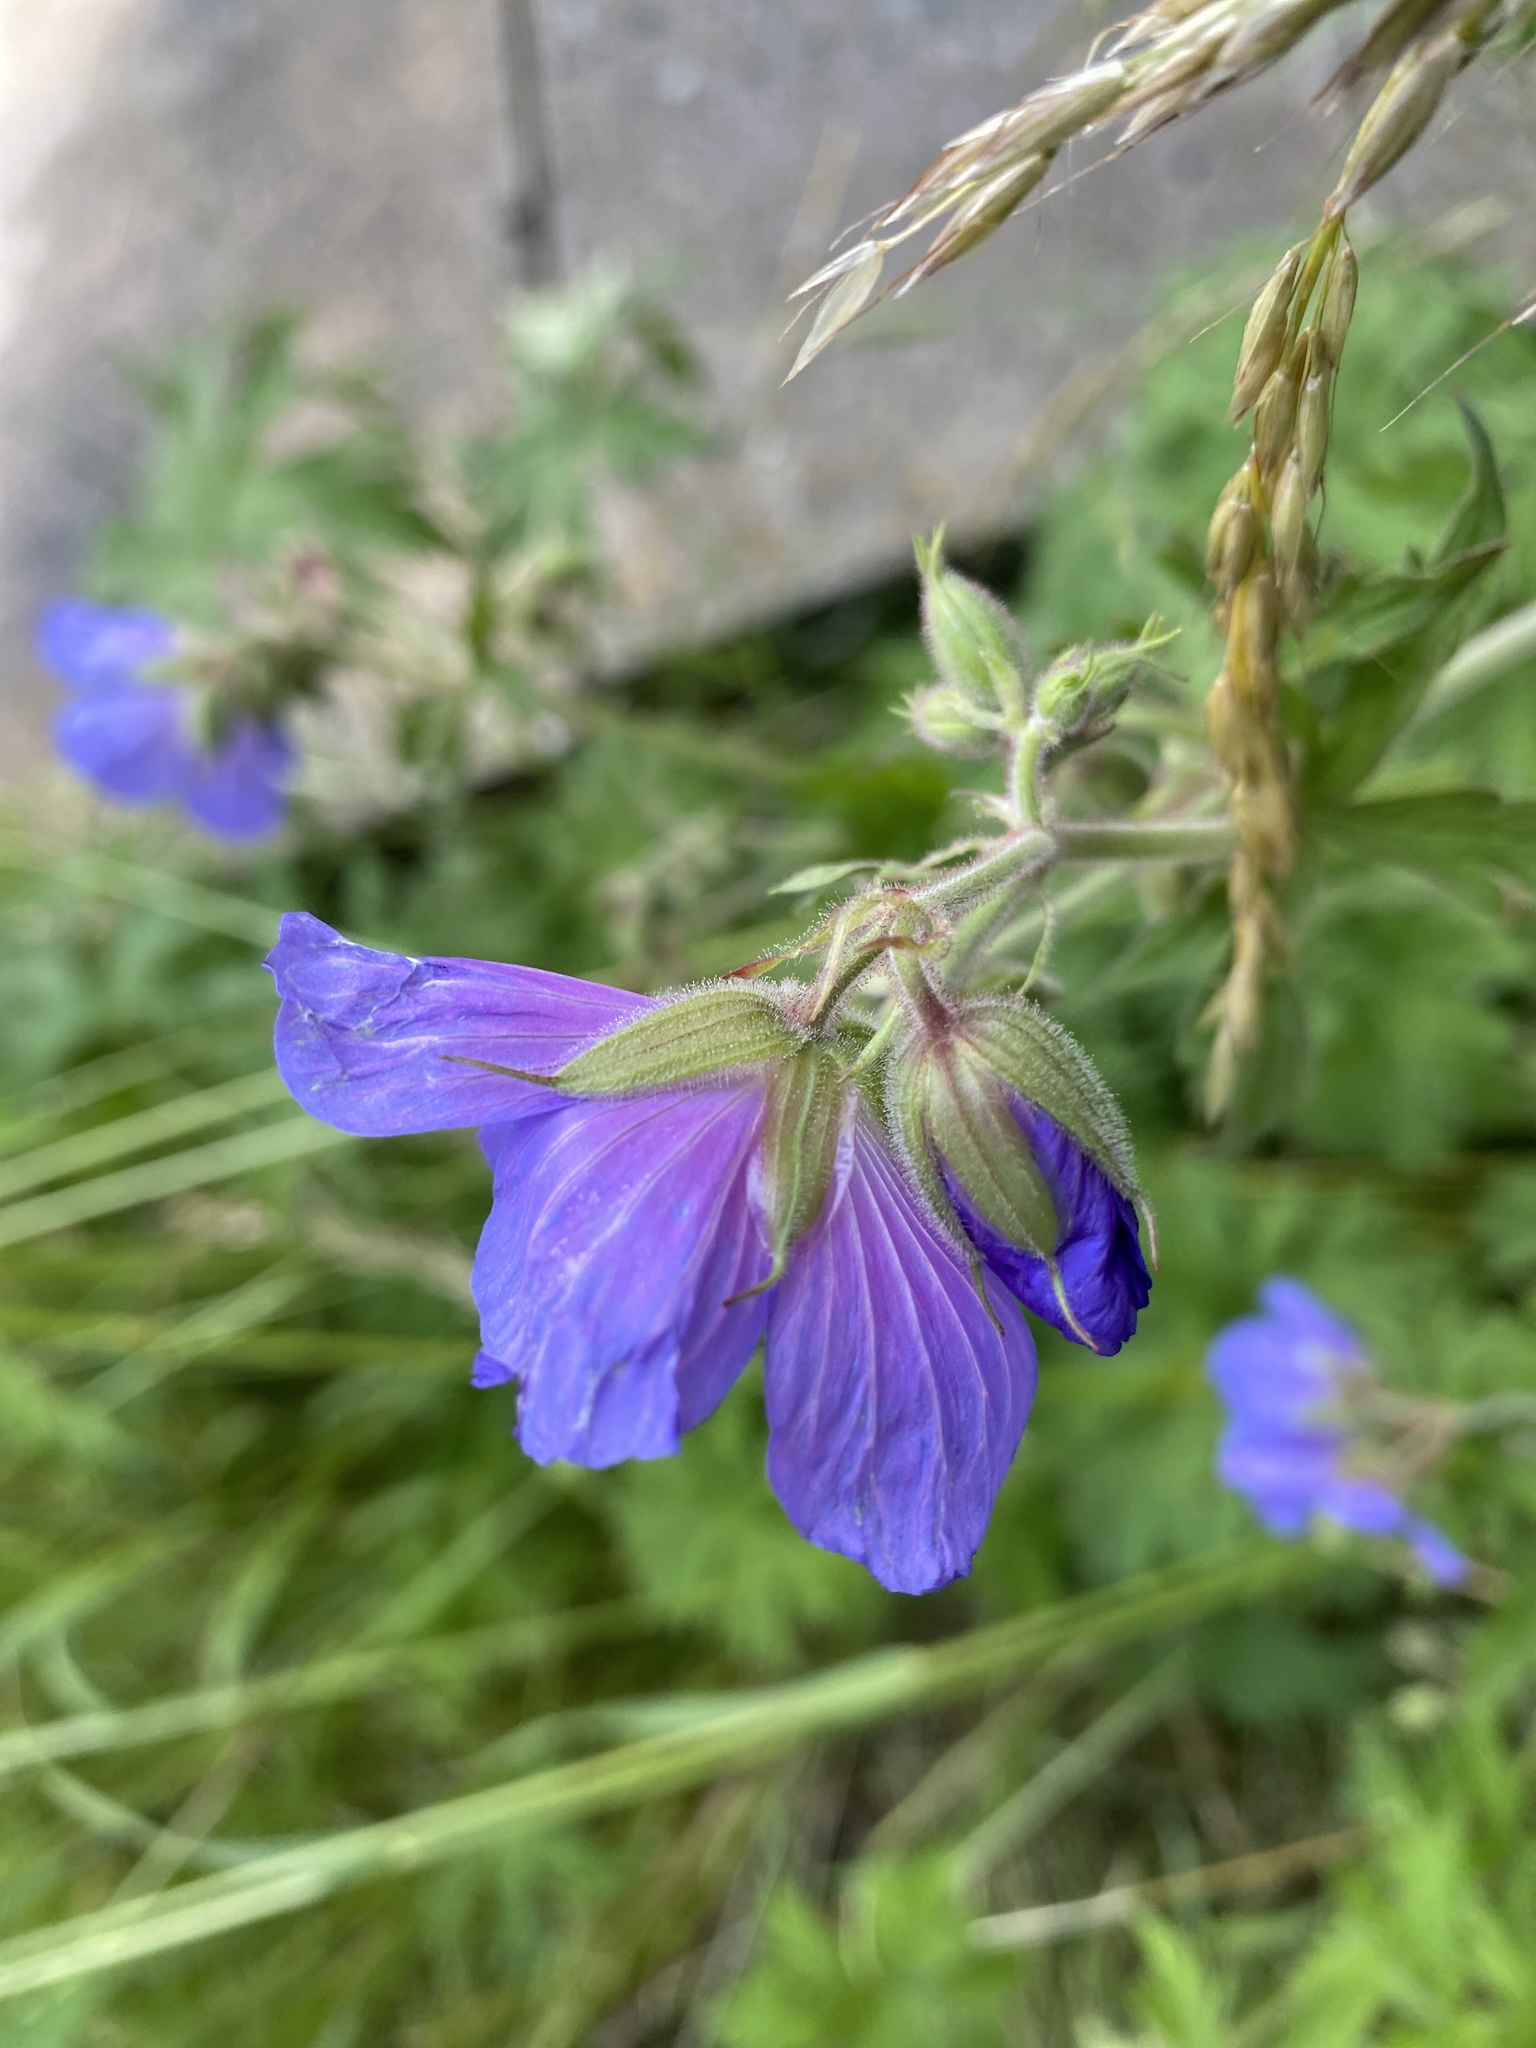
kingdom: Plantae
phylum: Tracheophyta
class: Magnoliopsida
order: Geraniales
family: Geraniaceae
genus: Geranium
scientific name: Geranium pratense
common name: Meadow crane's-bill
